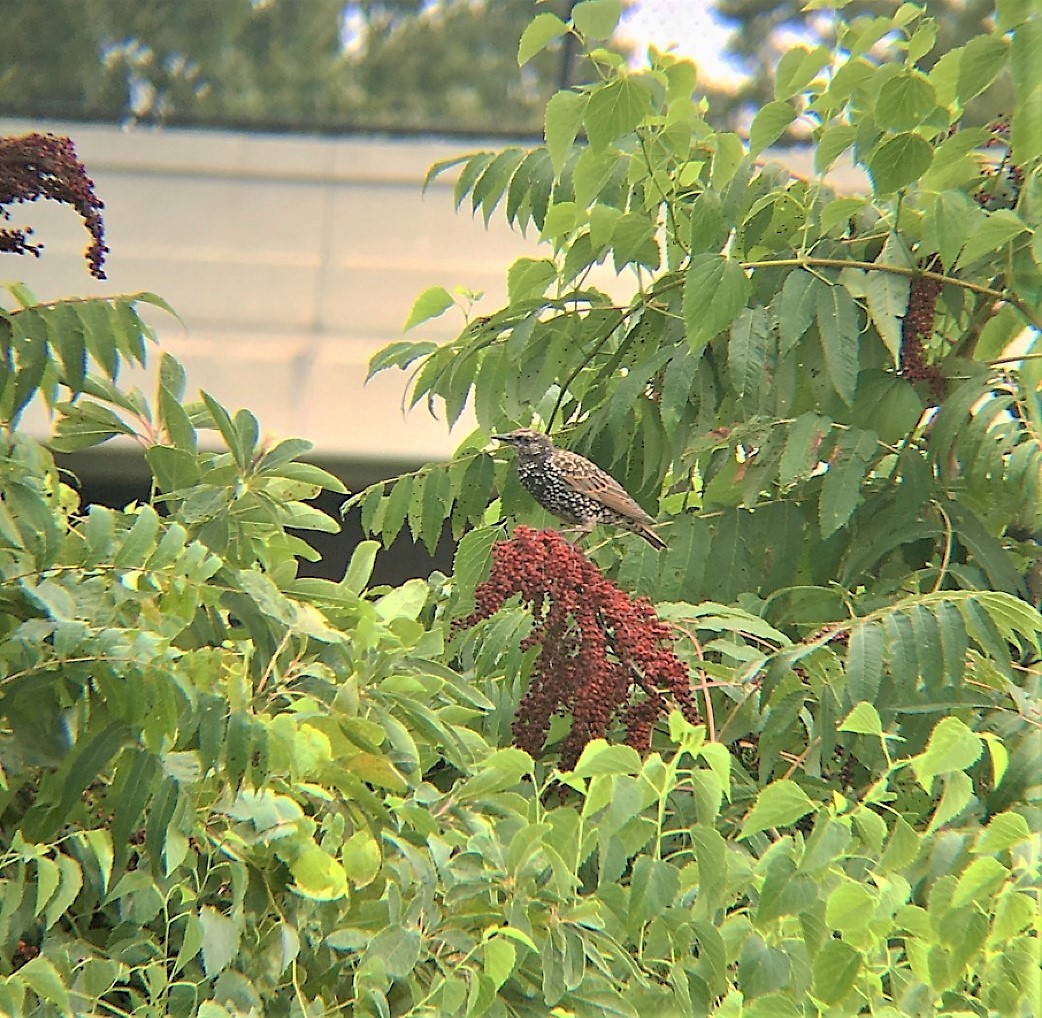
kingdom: Animalia
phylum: Chordata
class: Aves
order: Passeriformes
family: Sturnidae
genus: Sturnus
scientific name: Sturnus vulgaris
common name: Common starling
